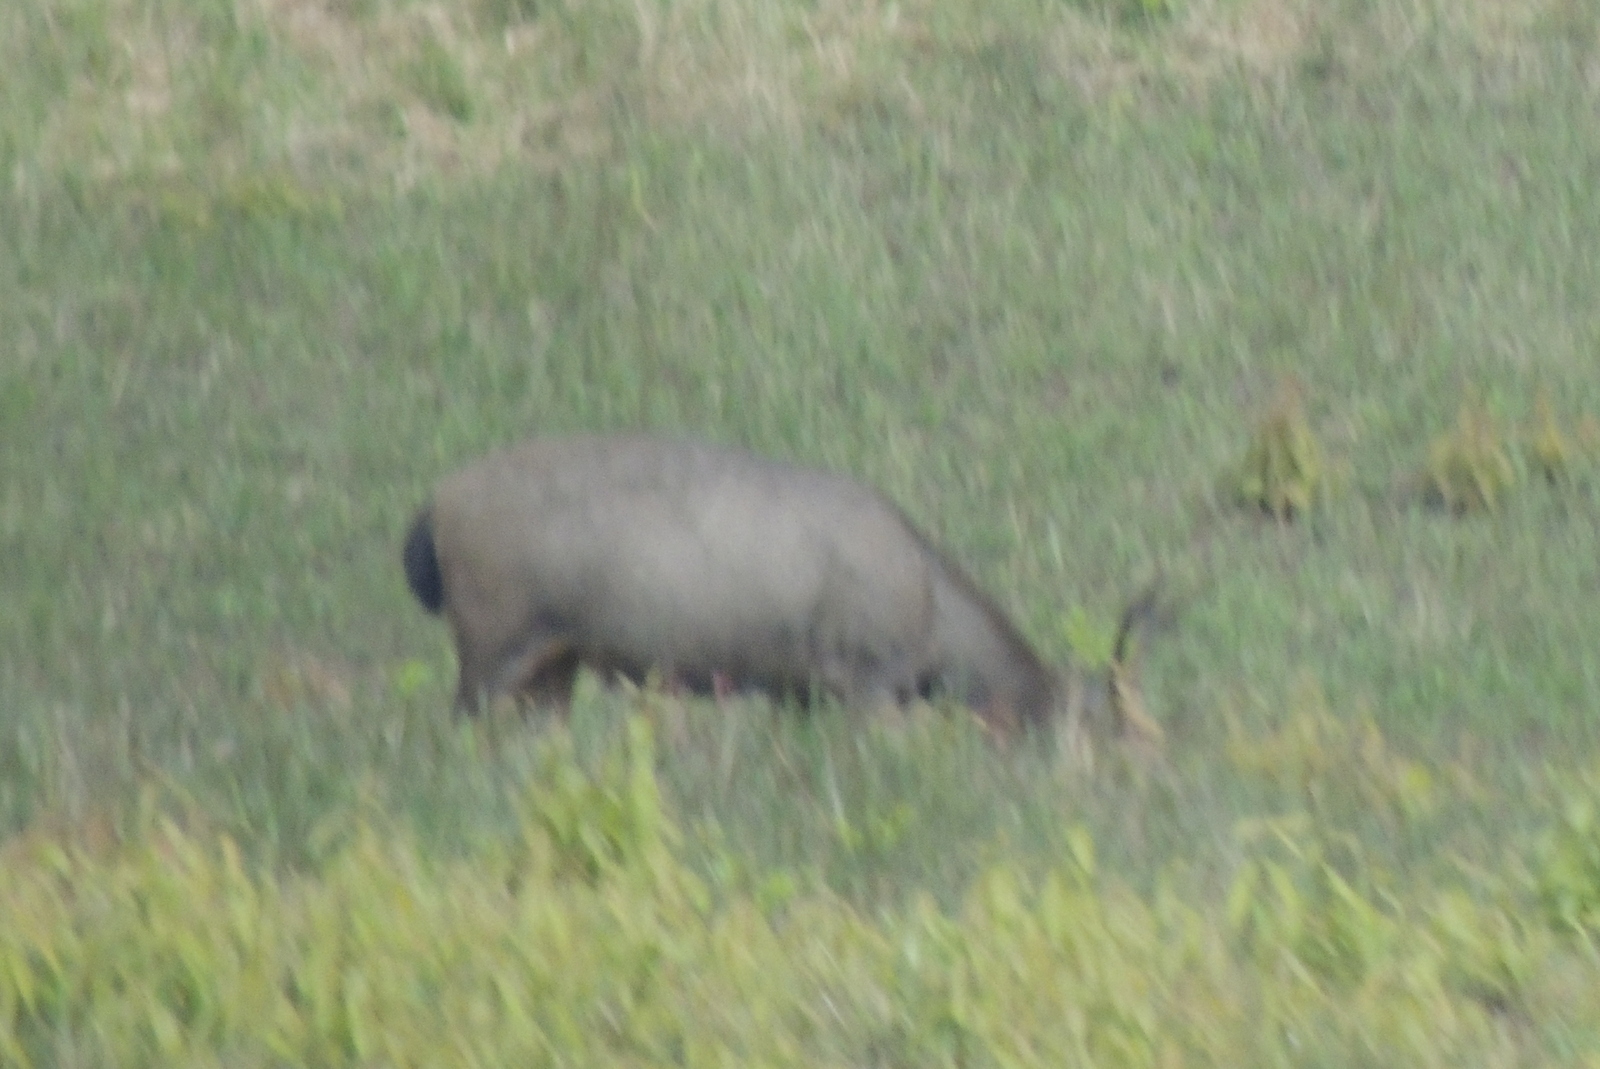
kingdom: Animalia
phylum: Chordata
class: Mammalia
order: Artiodactyla
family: Cervidae
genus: Rusa
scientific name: Rusa unicolor
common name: Sambar
